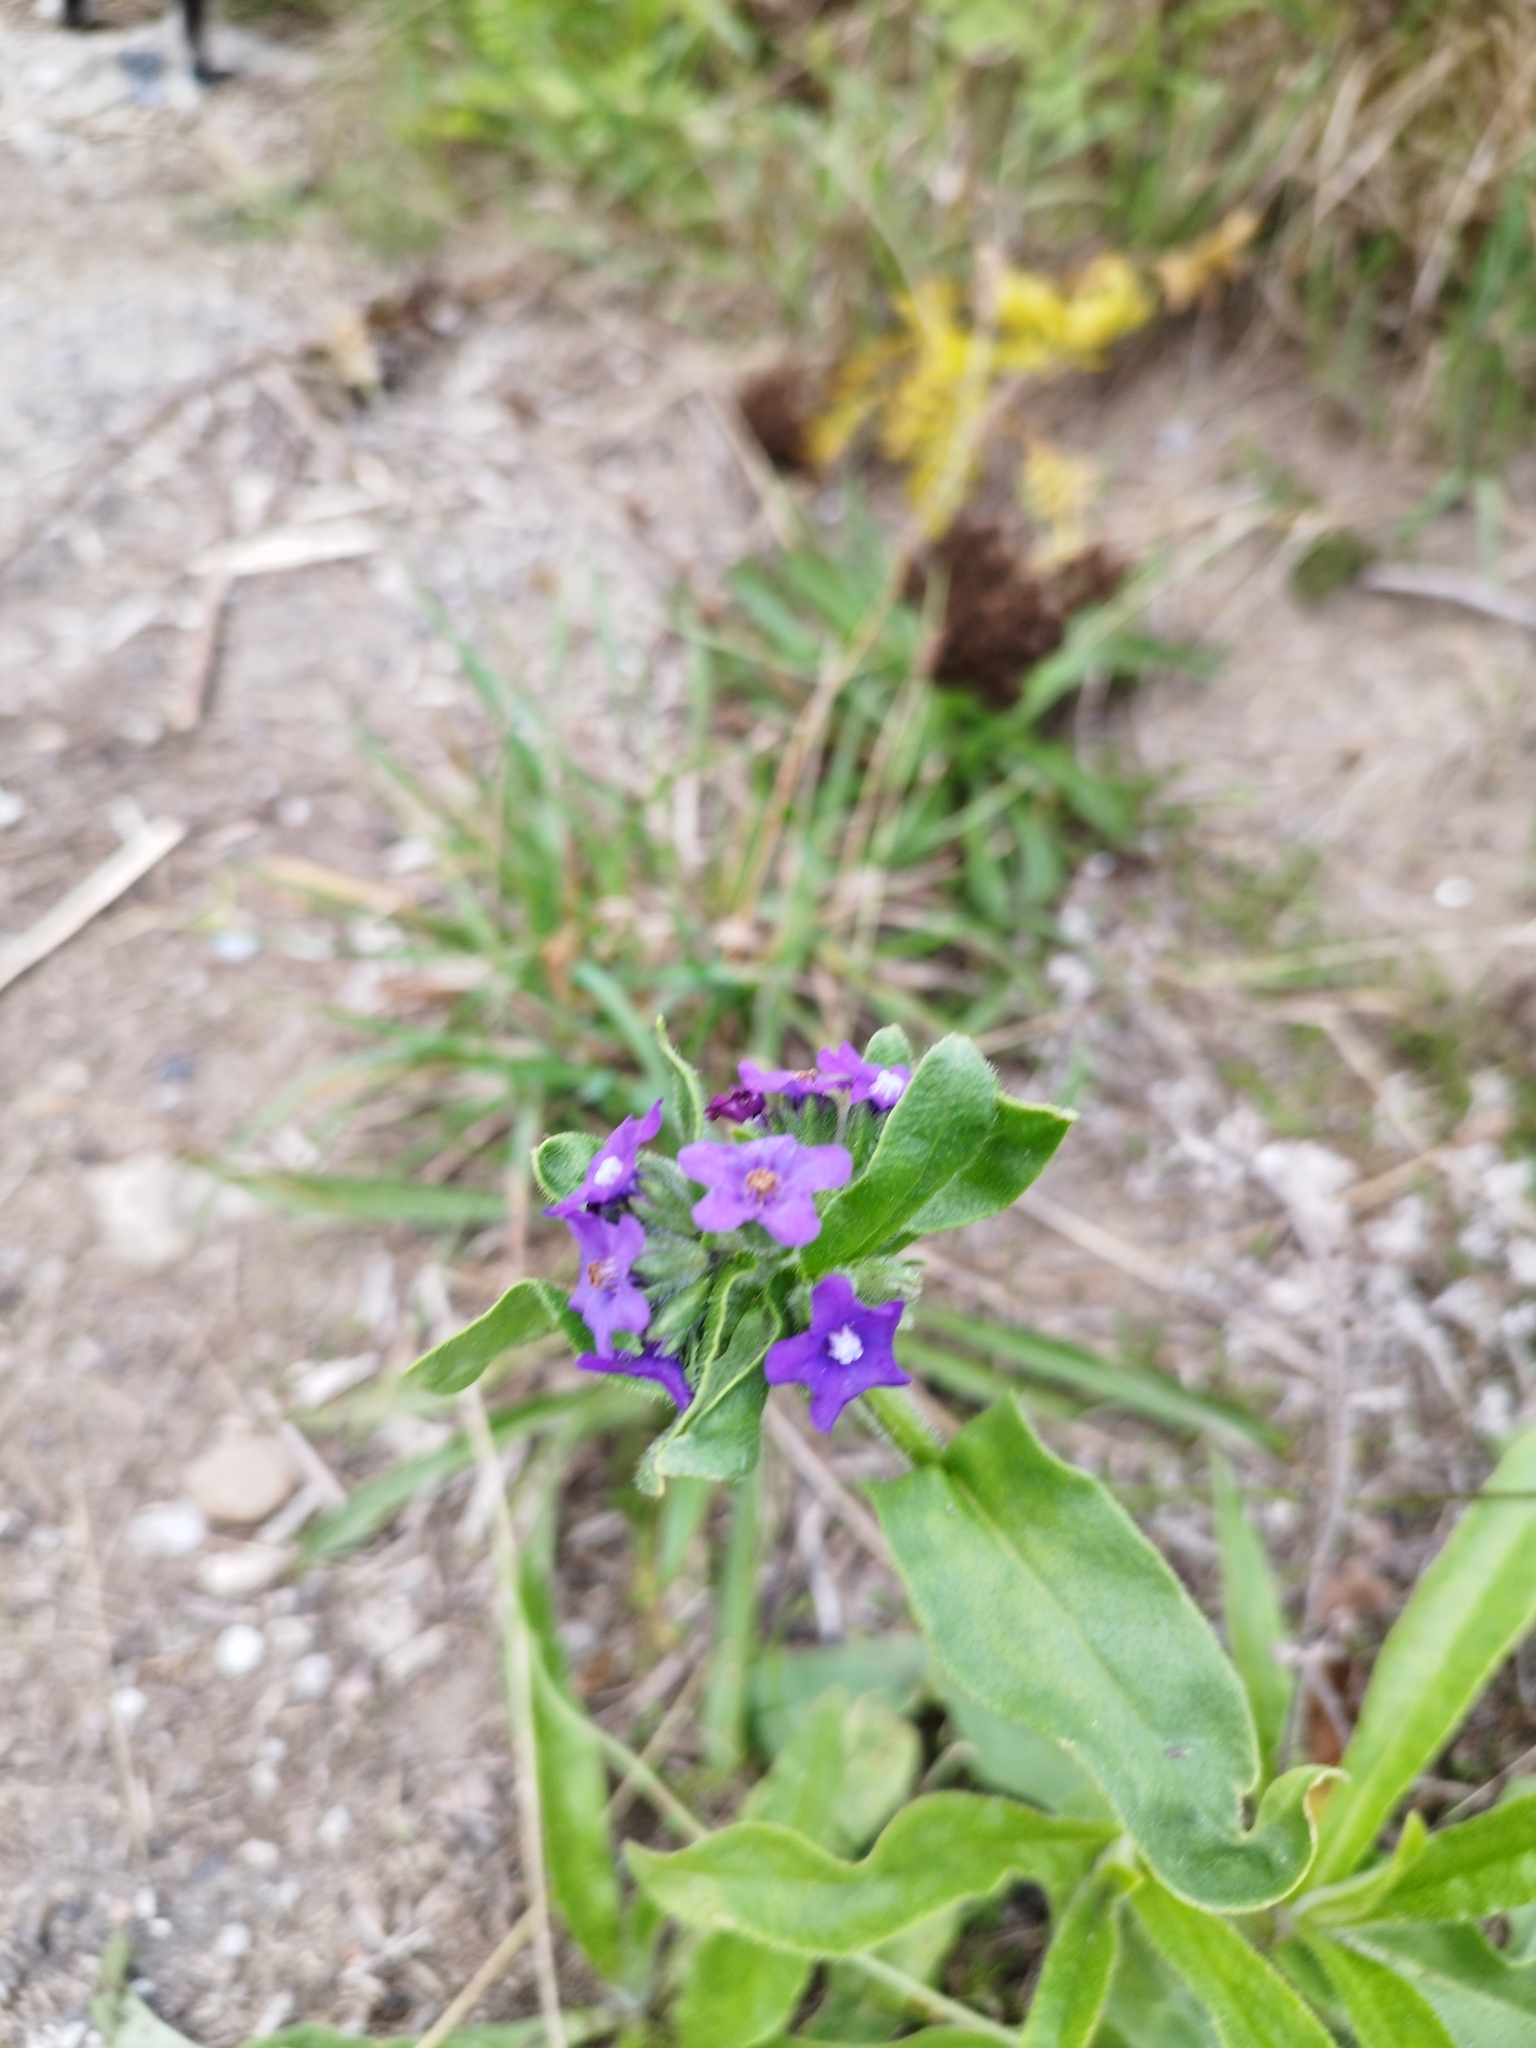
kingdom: Plantae
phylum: Tracheophyta
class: Magnoliopsida
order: Boraginales
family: Boraginaceae
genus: Anchusa
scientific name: Anchusa officinalis
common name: Alkanet
